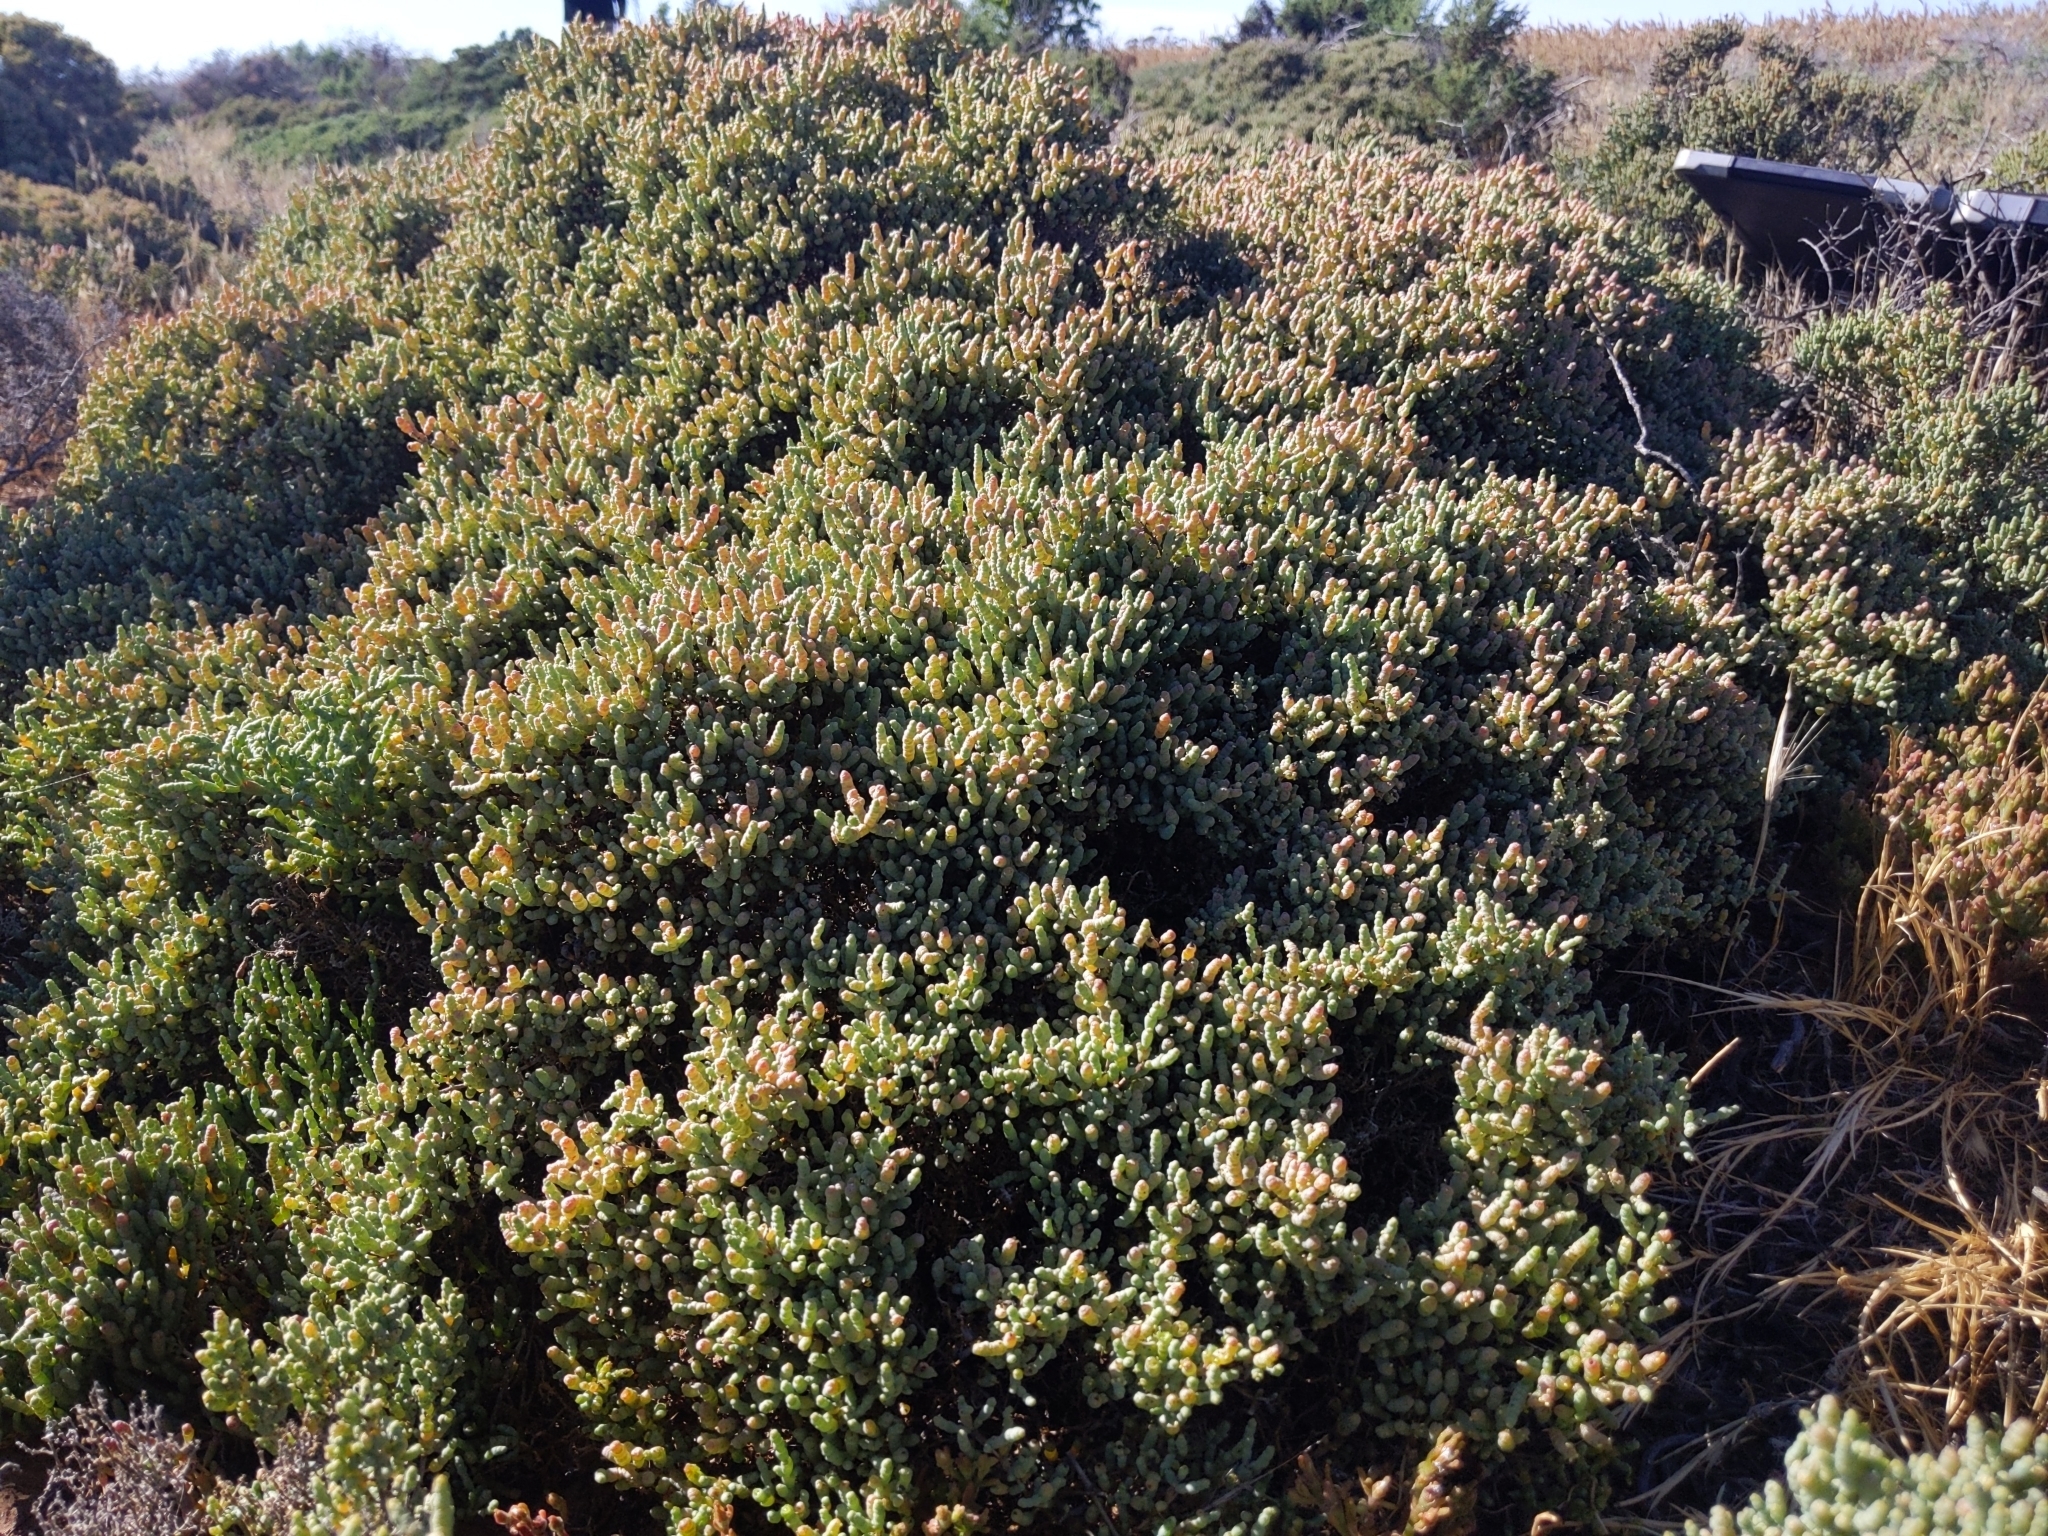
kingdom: Plantae
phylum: Tracheophyta
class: Magnoliopsida
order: Caryophyllales
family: Amaranthaceae
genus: Tecticornia
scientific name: Tecticornia pergranulata
